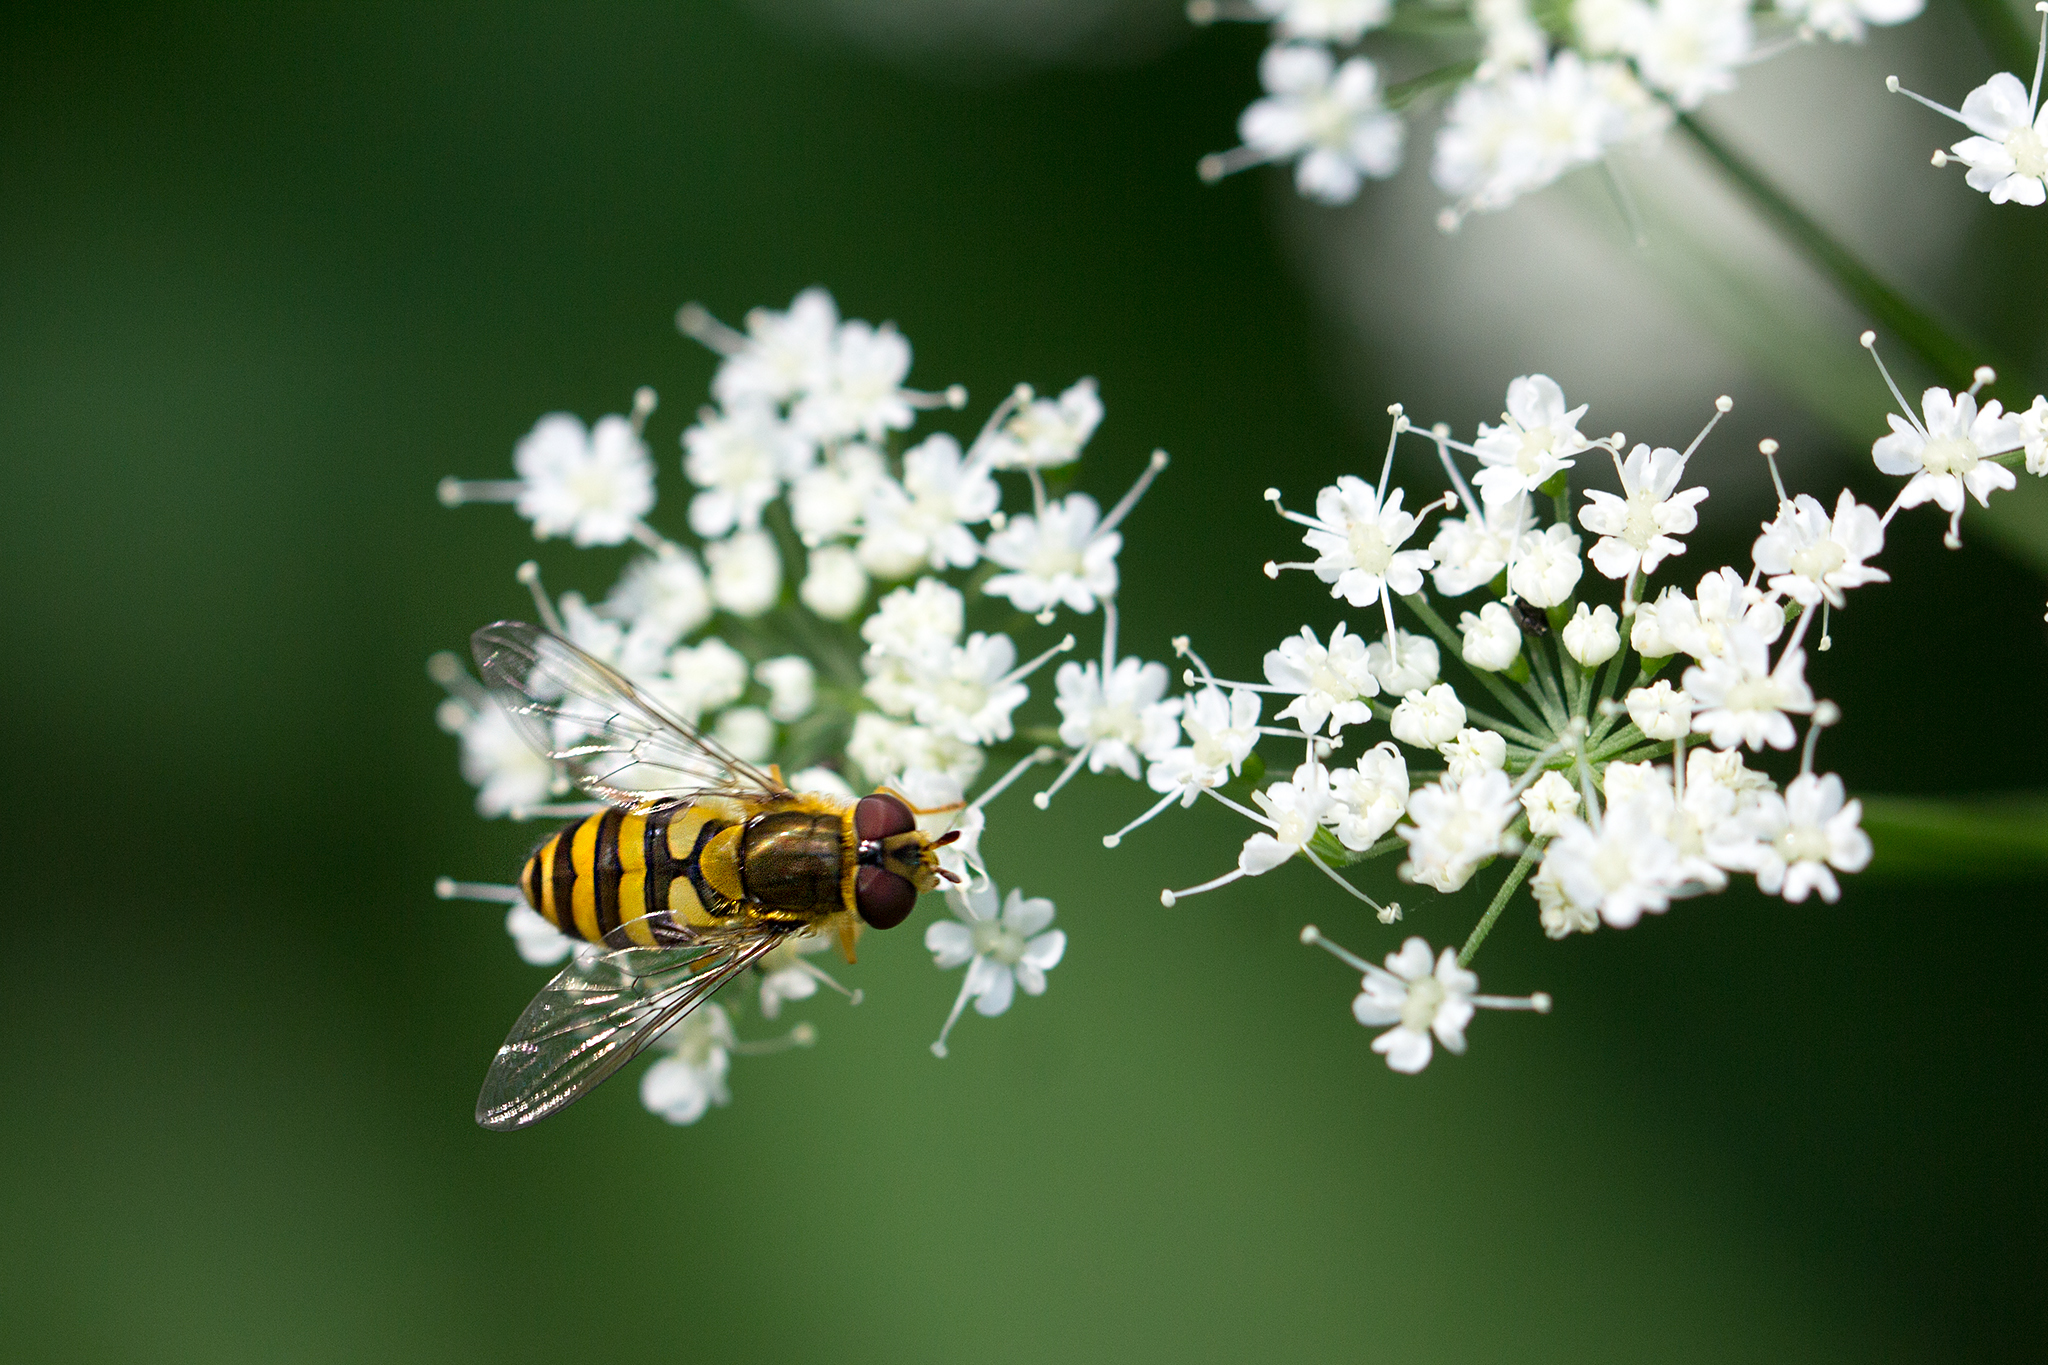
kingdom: Animalia
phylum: Arthropoda
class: Insecta
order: Diptera
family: Syrphidae
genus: Syrphus
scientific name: Syrphus
